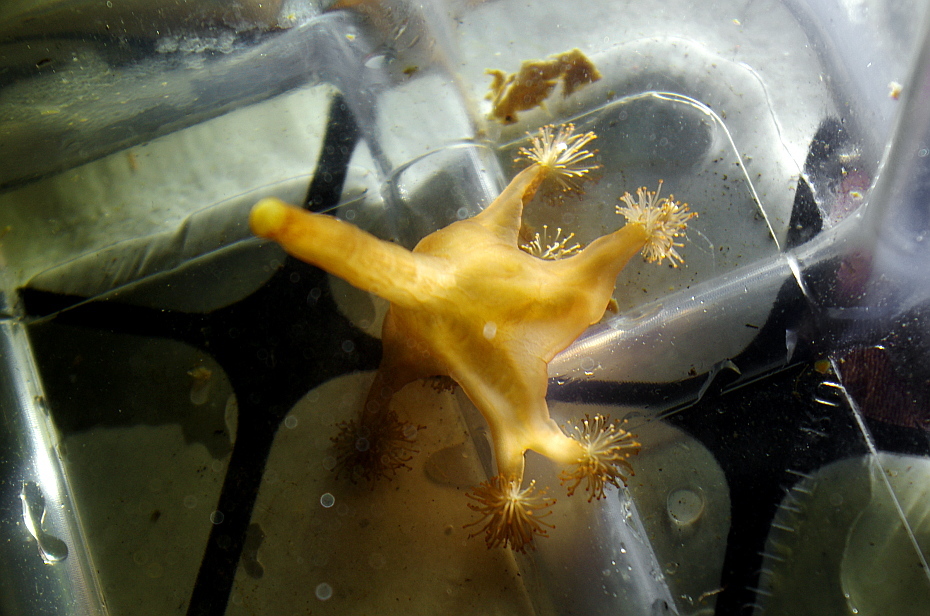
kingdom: Animalia
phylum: Cnidaria
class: Staurozoa
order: Stauromedusae
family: Lucernariidae
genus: Lucernaria
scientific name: Lucernaria quadricornis
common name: Horned stalked jellyfish
